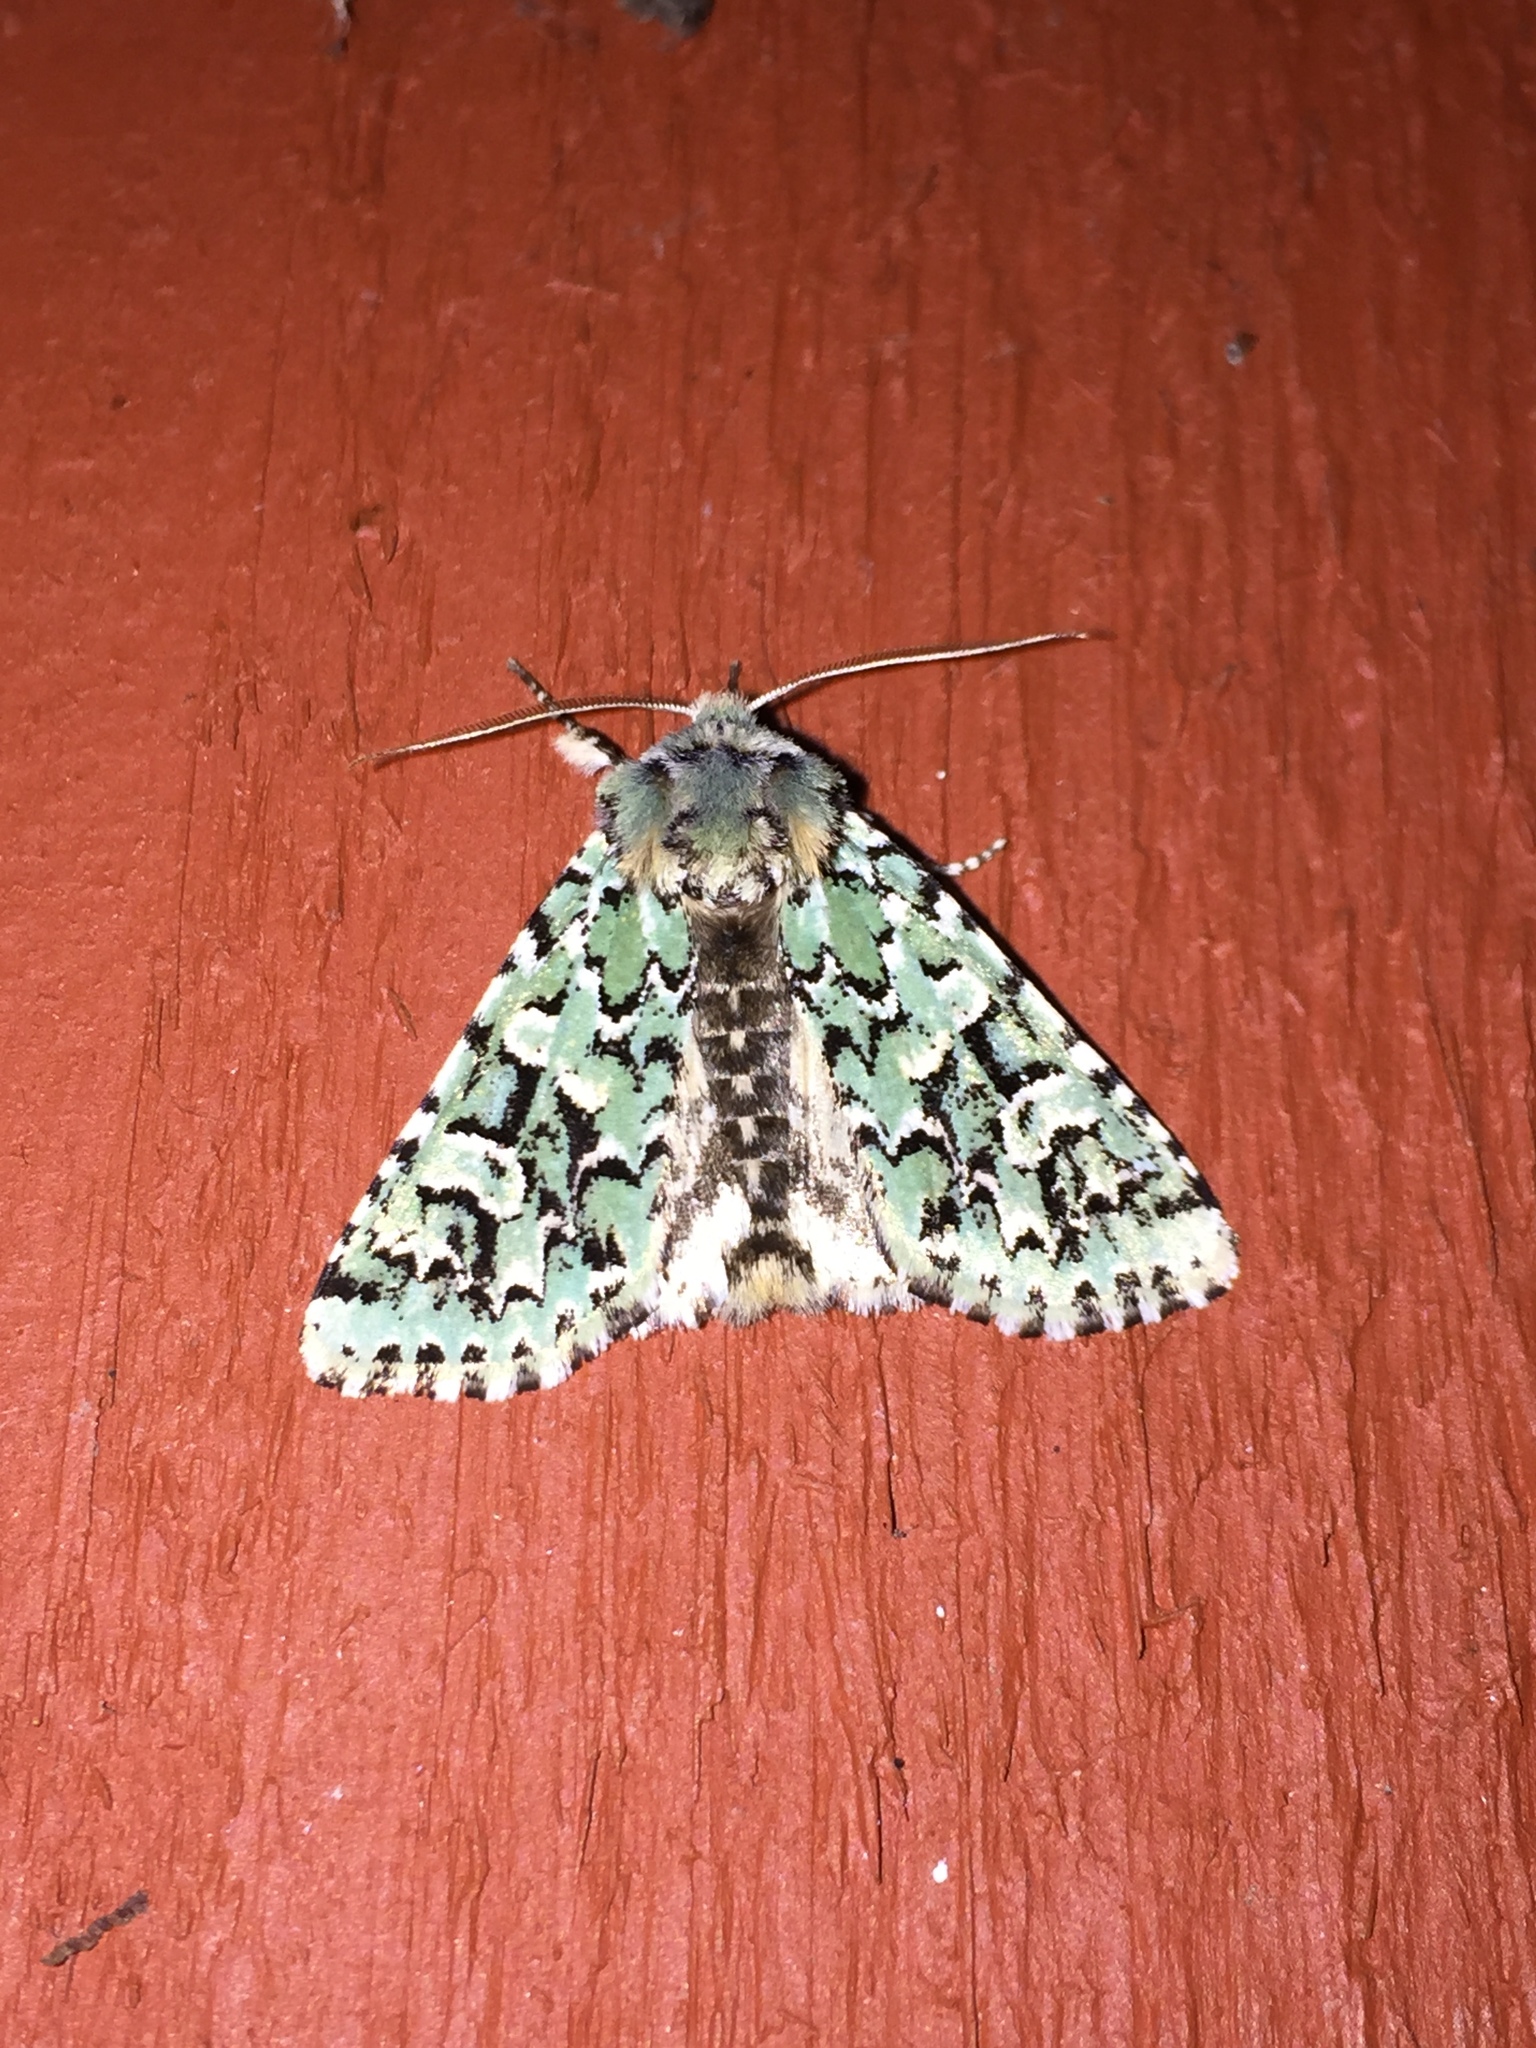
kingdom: Animalia
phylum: Arthropoda
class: Insecta
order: Lepidoptera
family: Noctuidae
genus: Feralia
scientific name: Feralia comstocki
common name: Comstock's sallow
